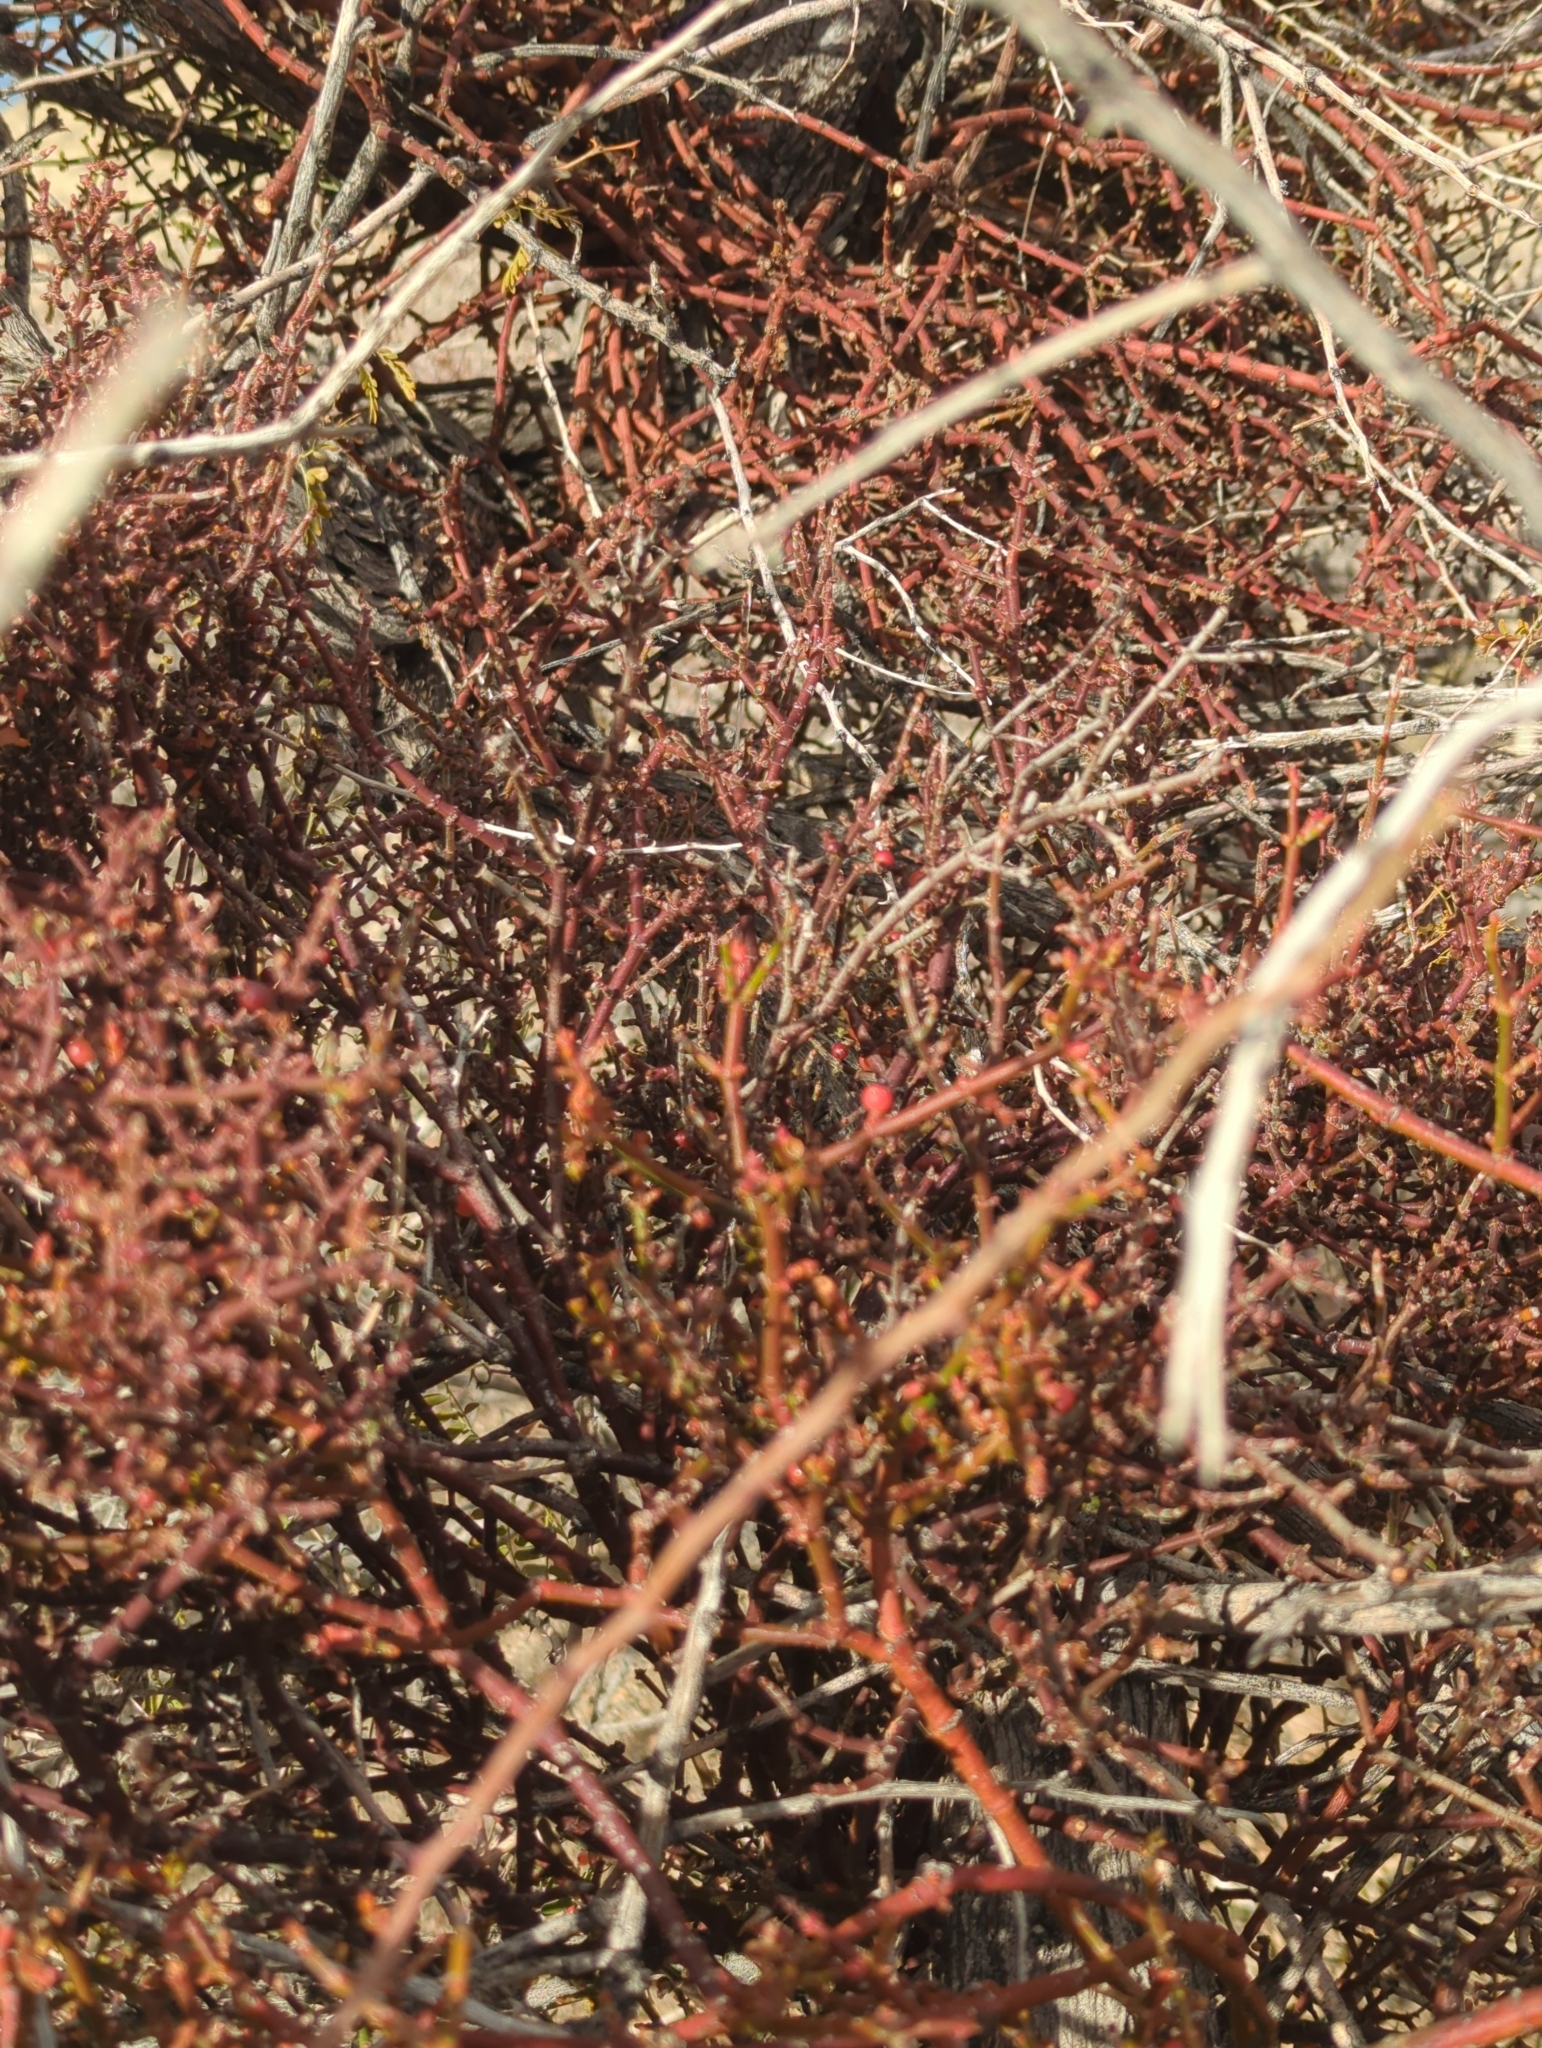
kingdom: Plantae
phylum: Tracheophyta
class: Magnoliopsida
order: Santalales
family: Viscaceae
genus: Phoradendron
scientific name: Phoradendron californicum
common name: Acacia mistletoe
